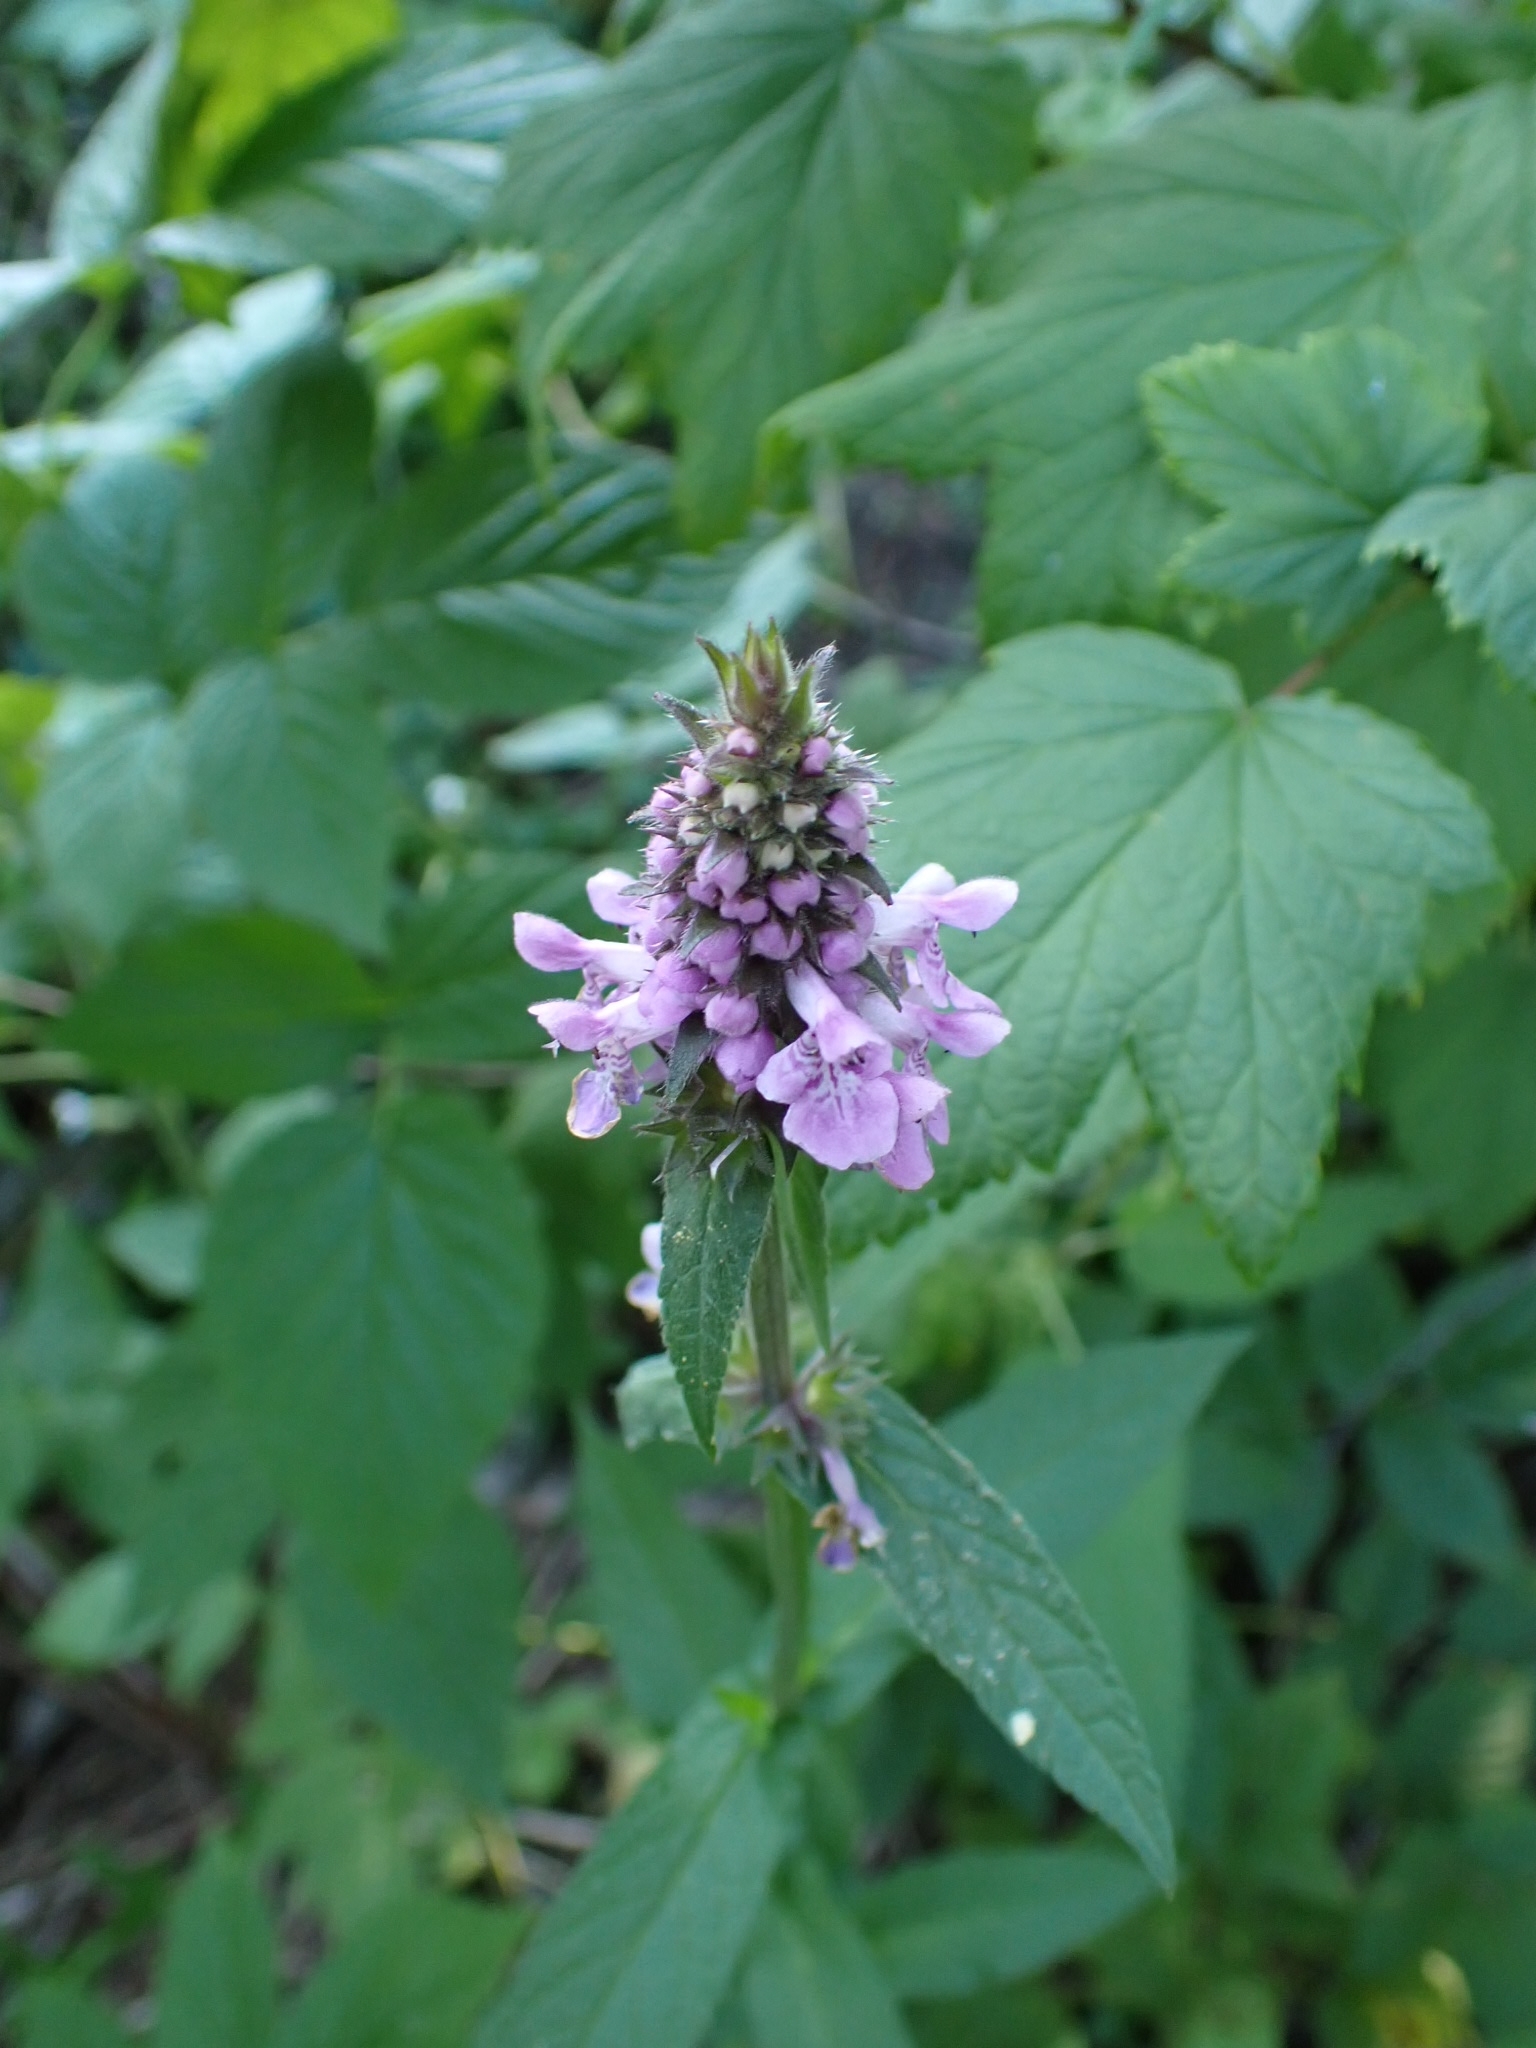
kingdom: Plantae
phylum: Tracheophyta
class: Magnoliopsida
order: Lamiales
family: Lamiaceae
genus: Stachys
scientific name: Stachys palustris
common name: Marsh woundwort
